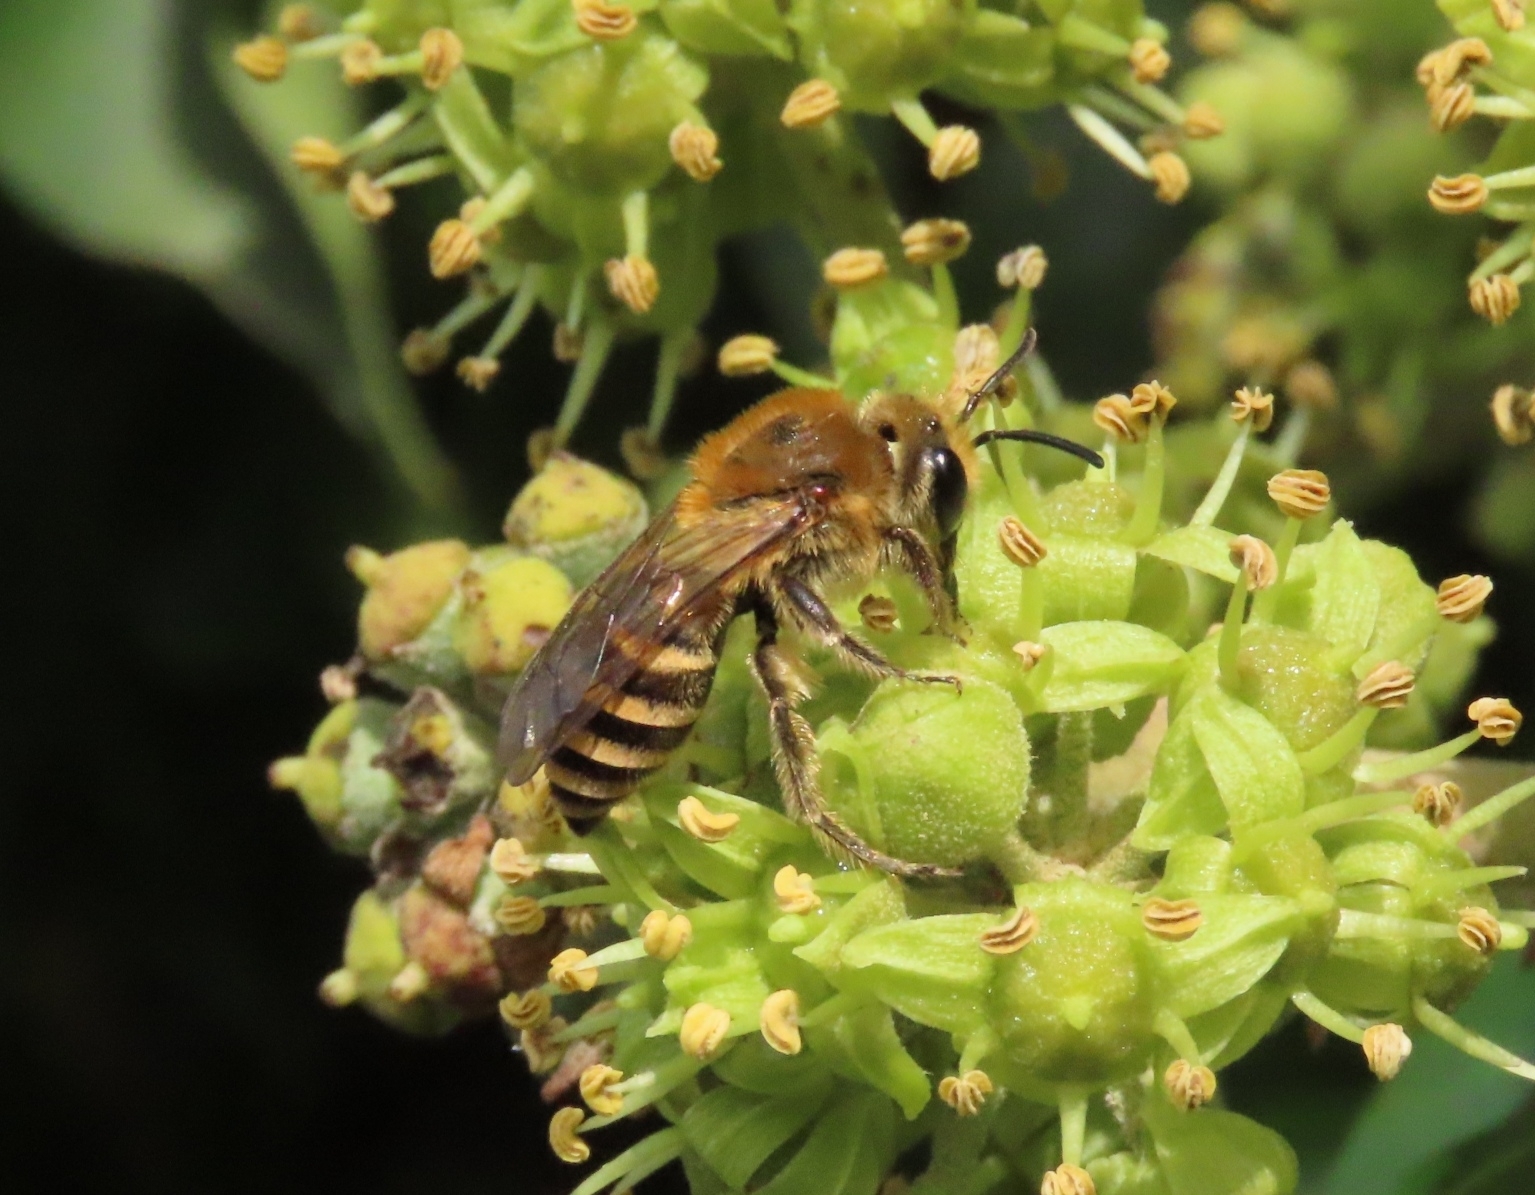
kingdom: Animalia
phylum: Arthropoda
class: Insecta
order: Hymenoptera
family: Colletidae
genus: Colletes
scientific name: Colletes hederae
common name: Ivy bee
